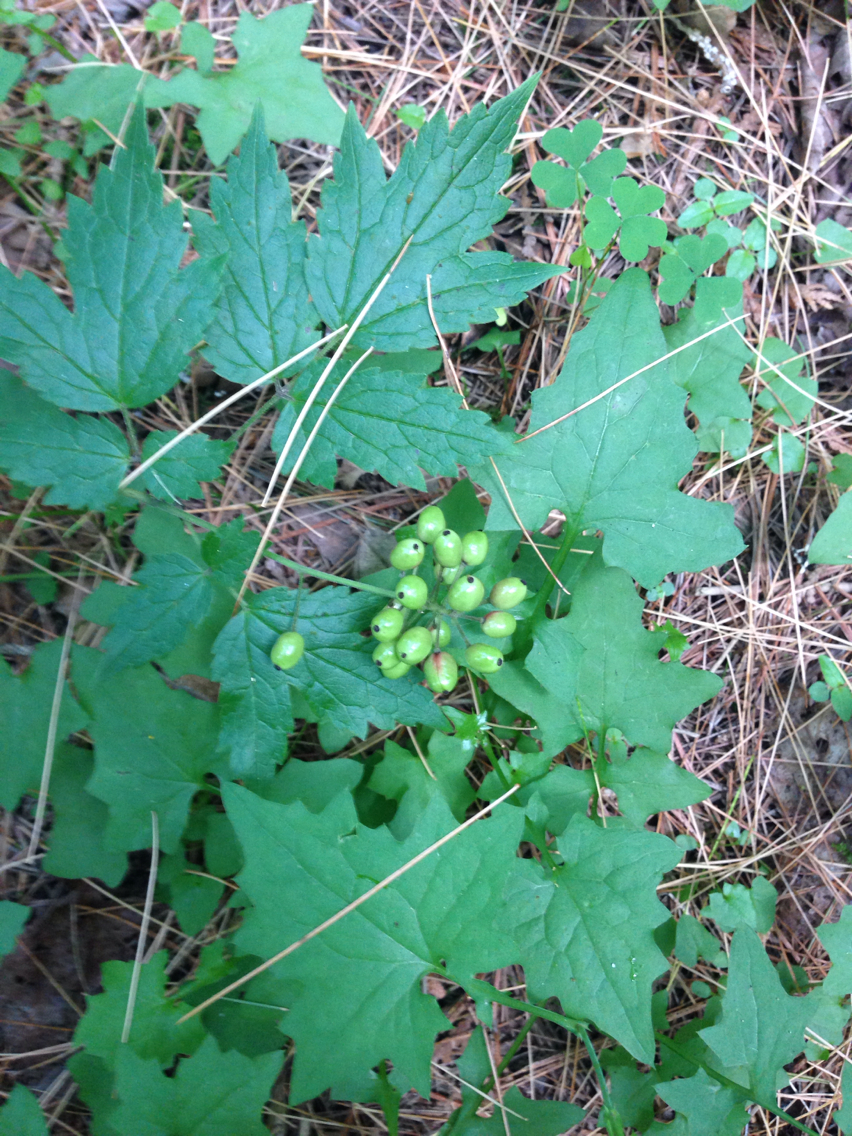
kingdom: Plantae
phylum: Tracheophyta
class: Magnoliopsida
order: Ranunculales
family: Ranunculaceae
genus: Actaea
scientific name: Actaea rubra
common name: Red baneberry
